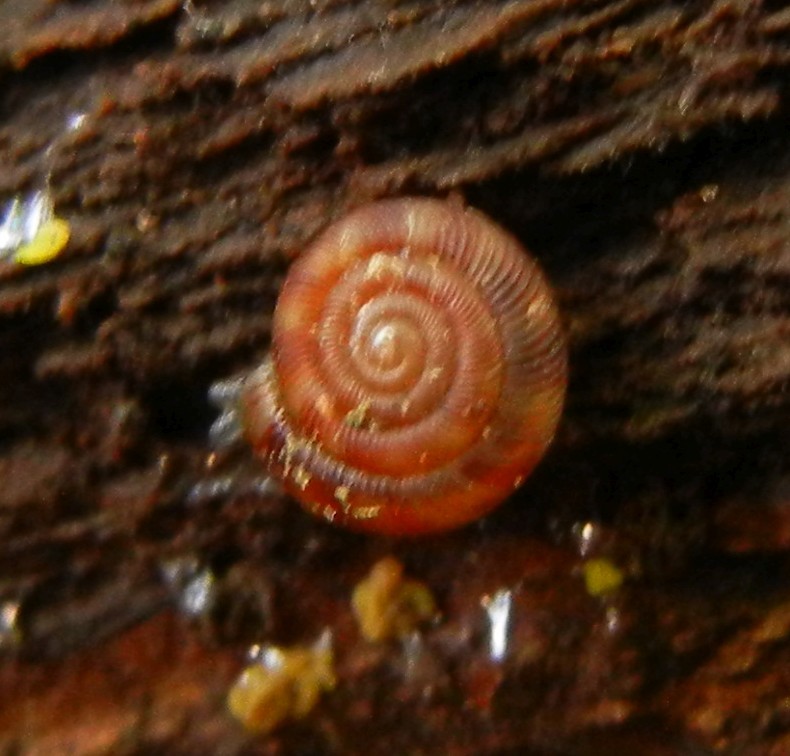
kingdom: Animalia
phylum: Mollusca
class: Gastropoda
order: Stylommatophora
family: Discidae
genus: Discus
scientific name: Discus rotundatus
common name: Rounded snail
